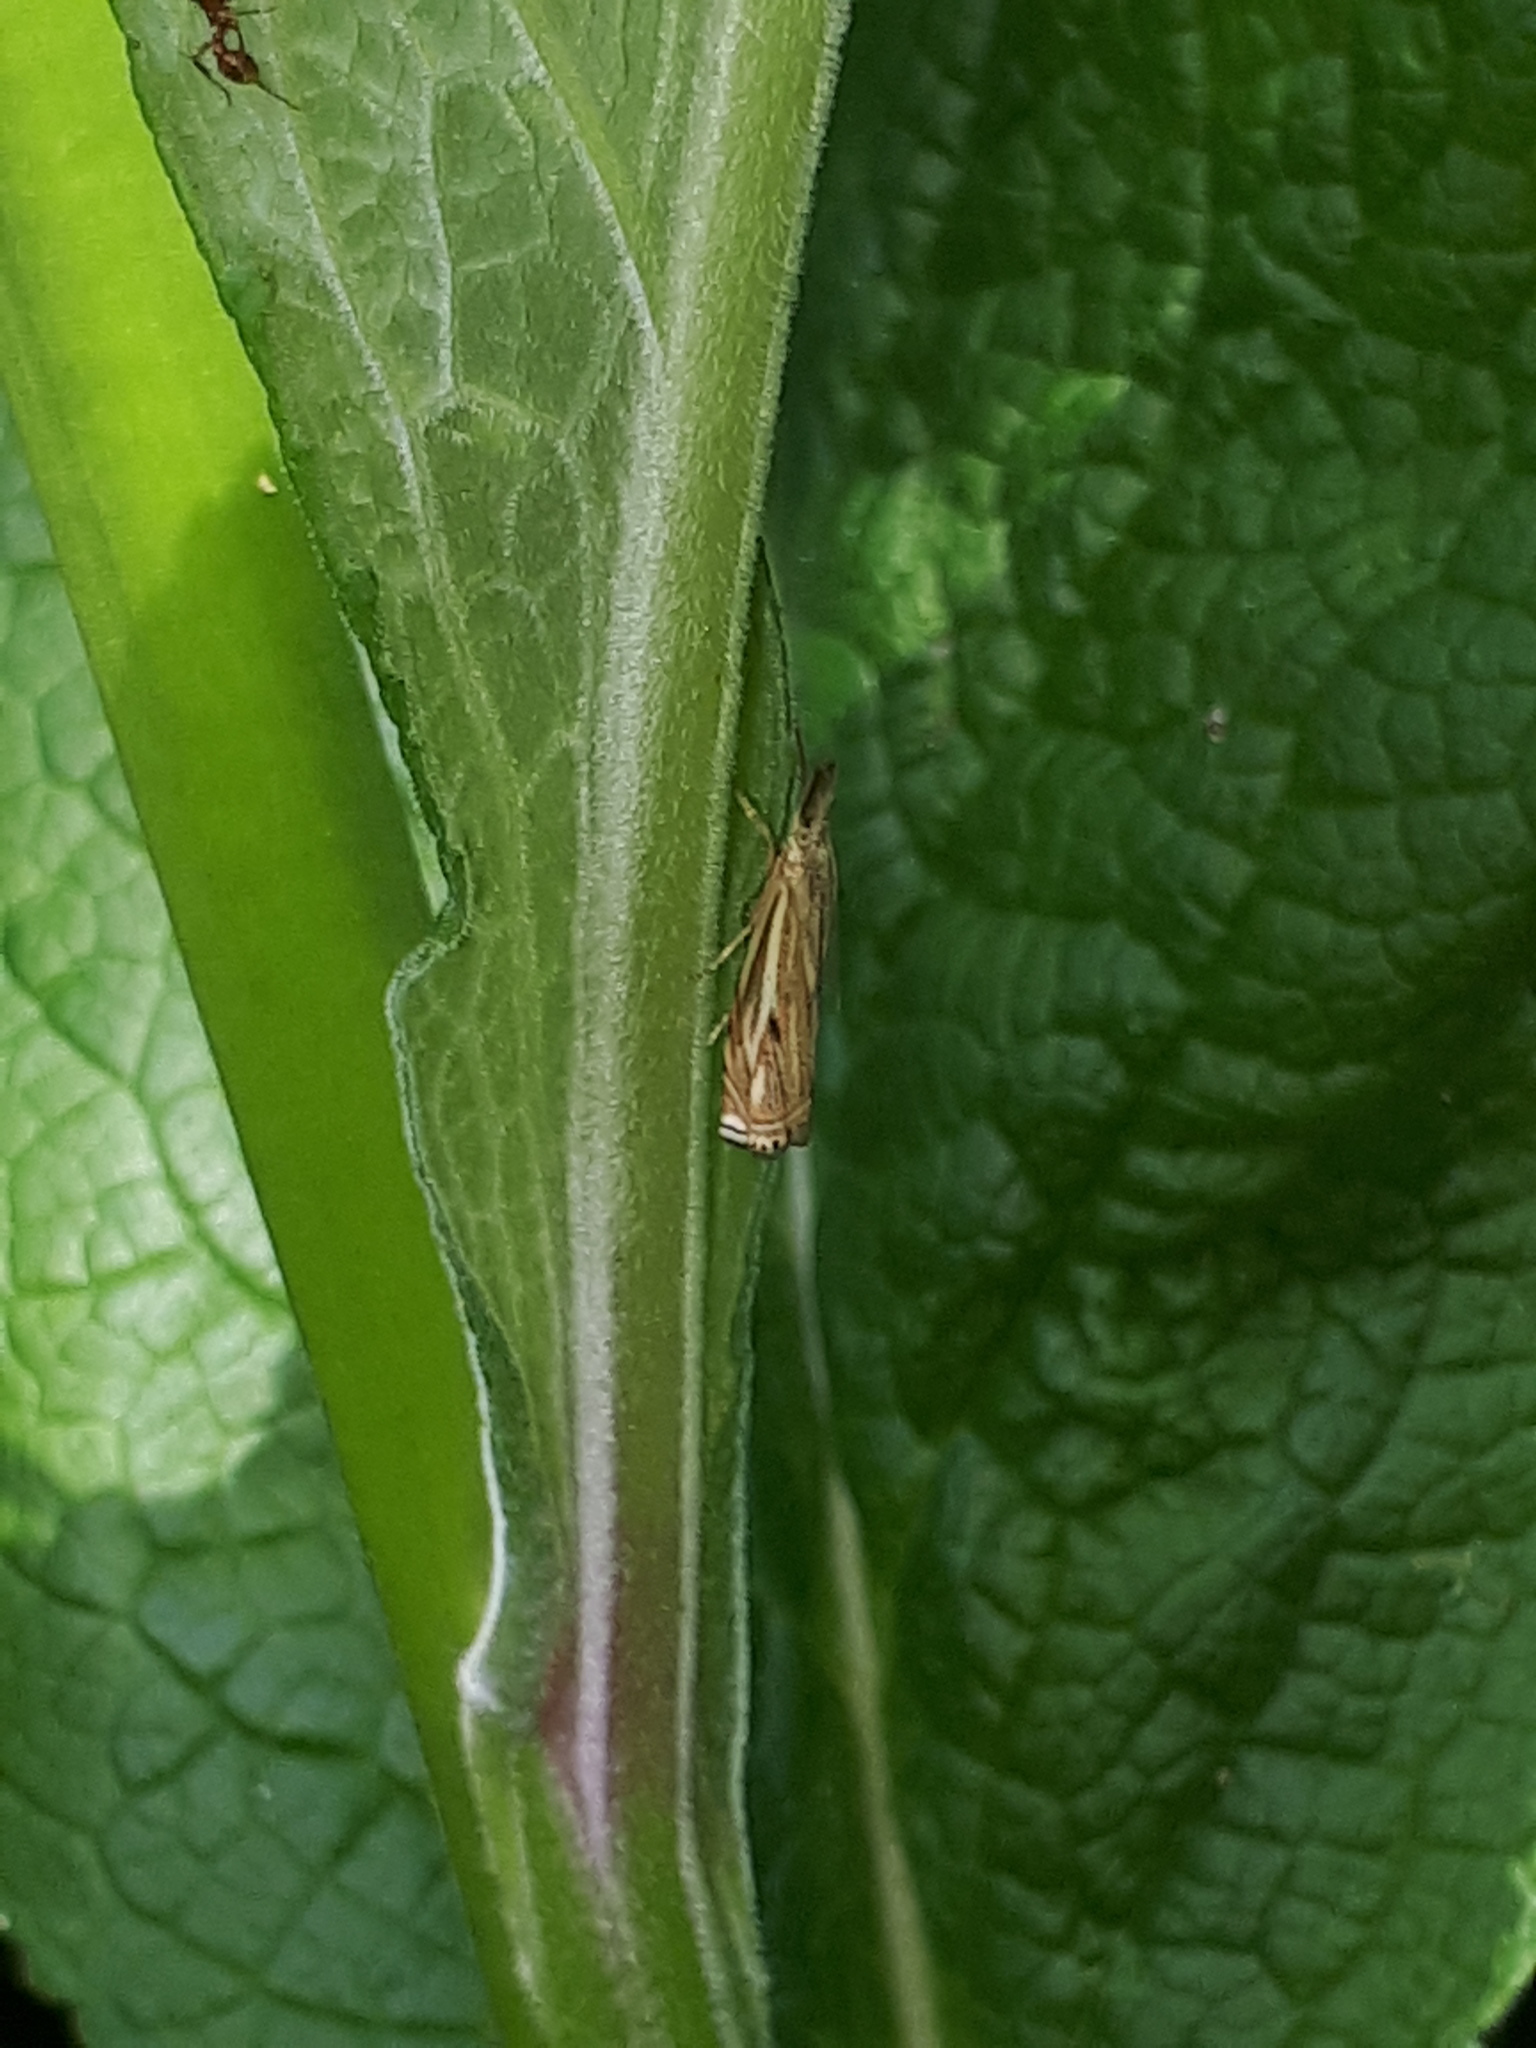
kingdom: Animalia
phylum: Arthropoda
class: Insecta
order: Lepidoptera
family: Crambidae
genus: Crambus
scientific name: Crambus nemorella
